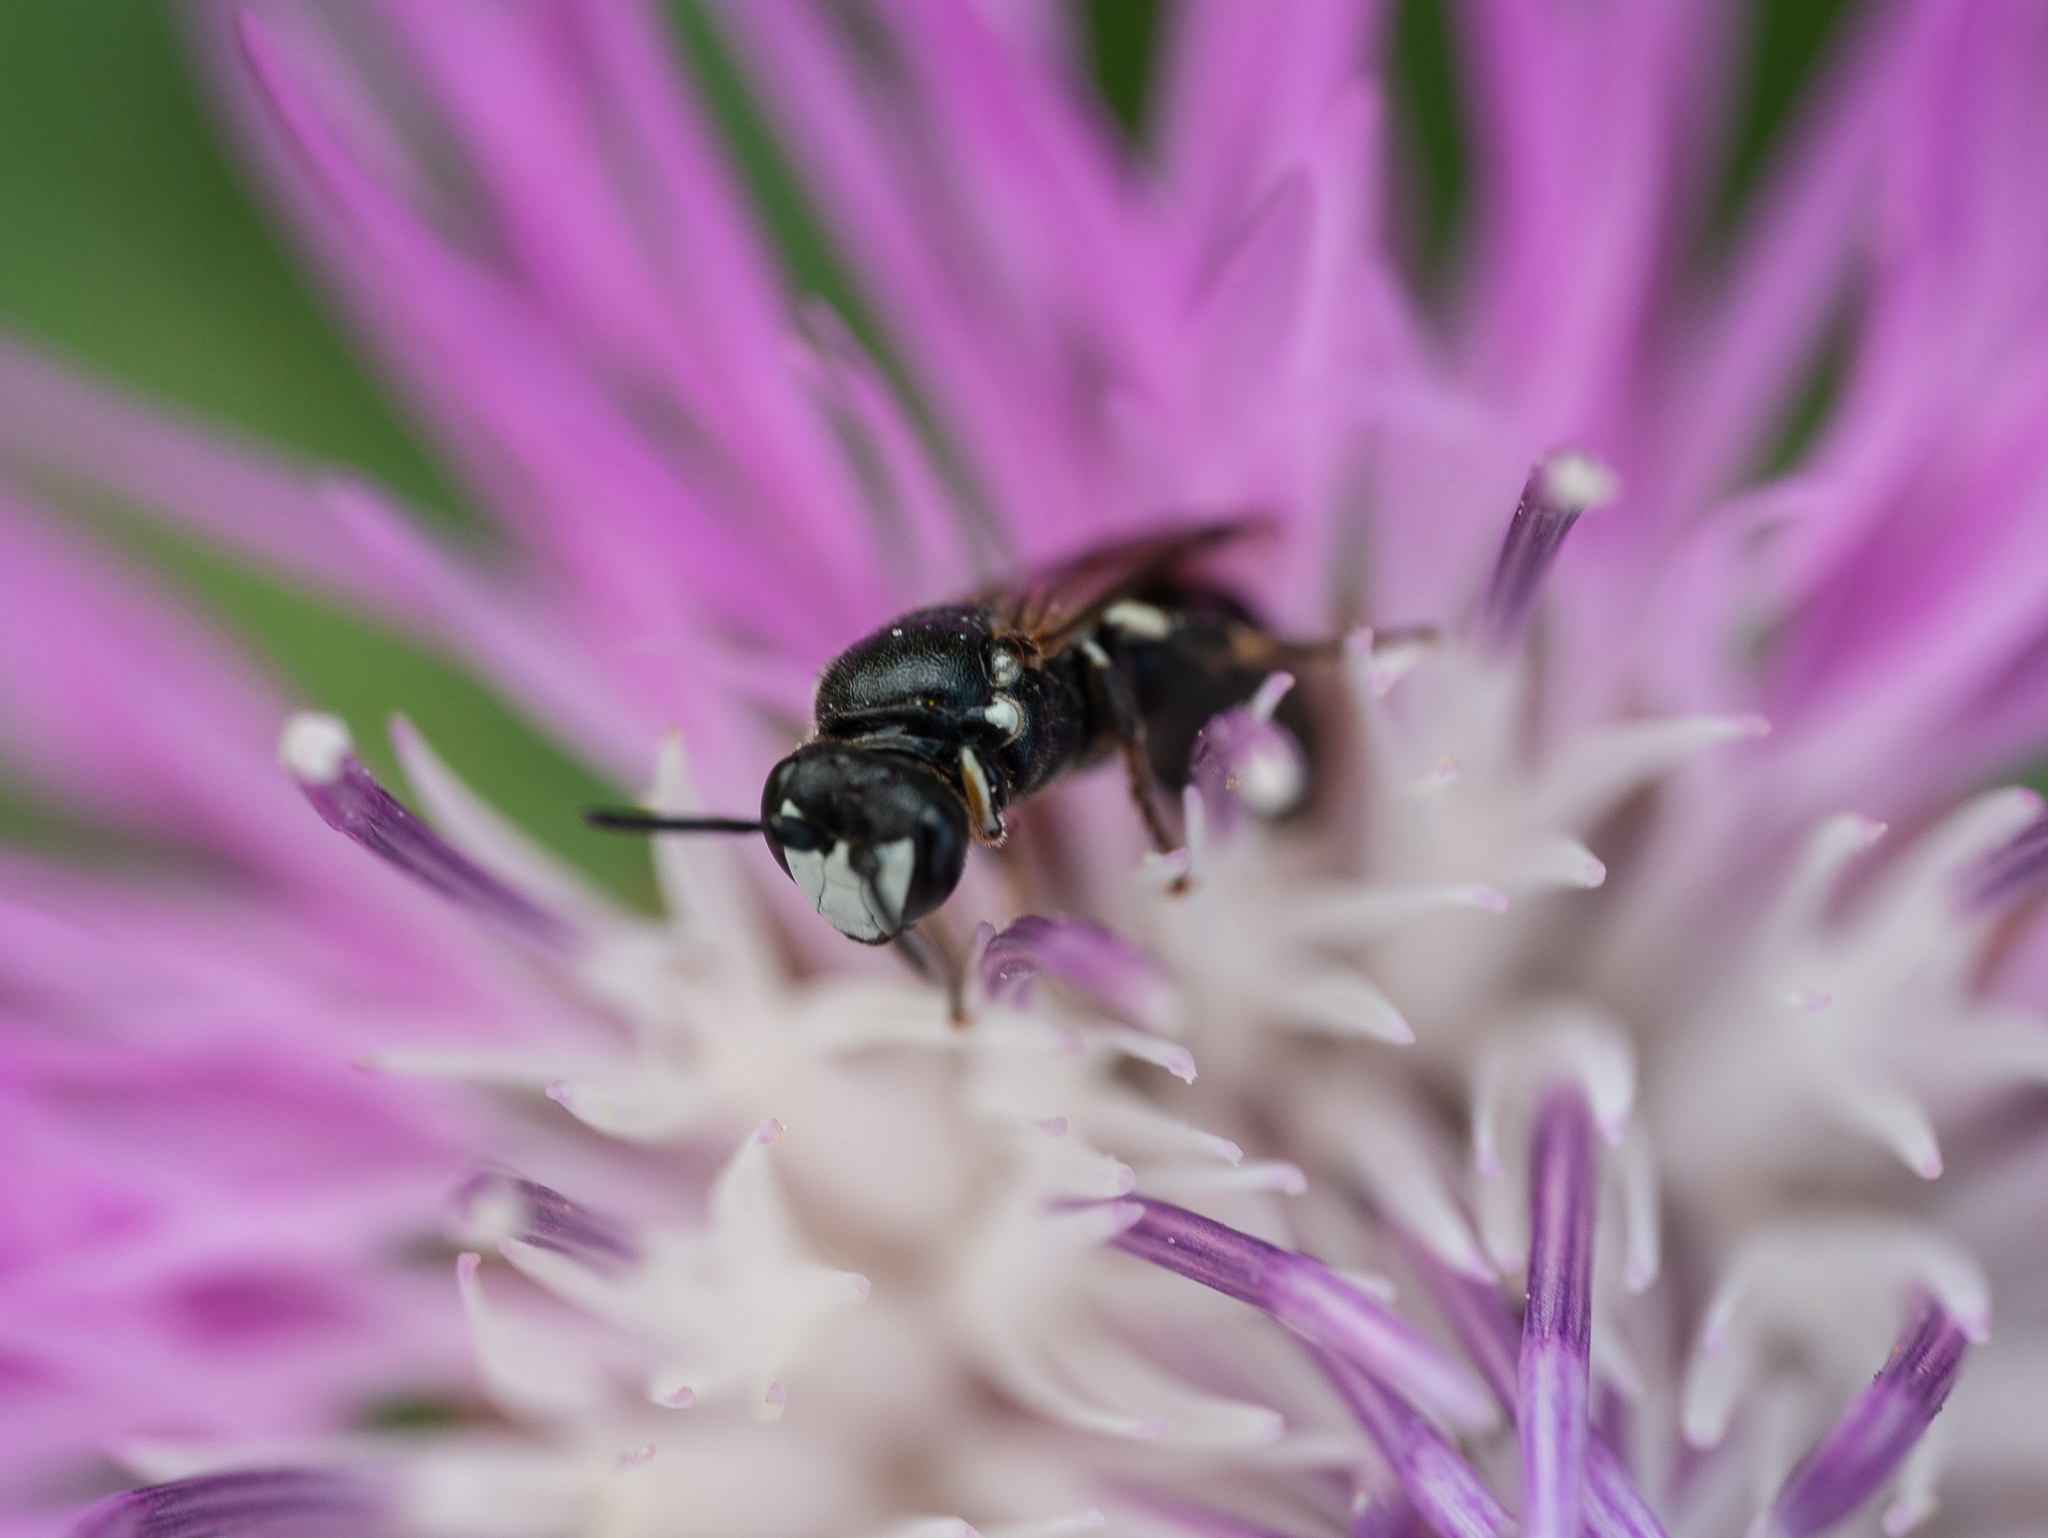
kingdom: Animalia
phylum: Arthropoda
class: Insecta
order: Hymenoptera
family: Colletidae
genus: Hylaeus
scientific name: Hylaeus nigritus
